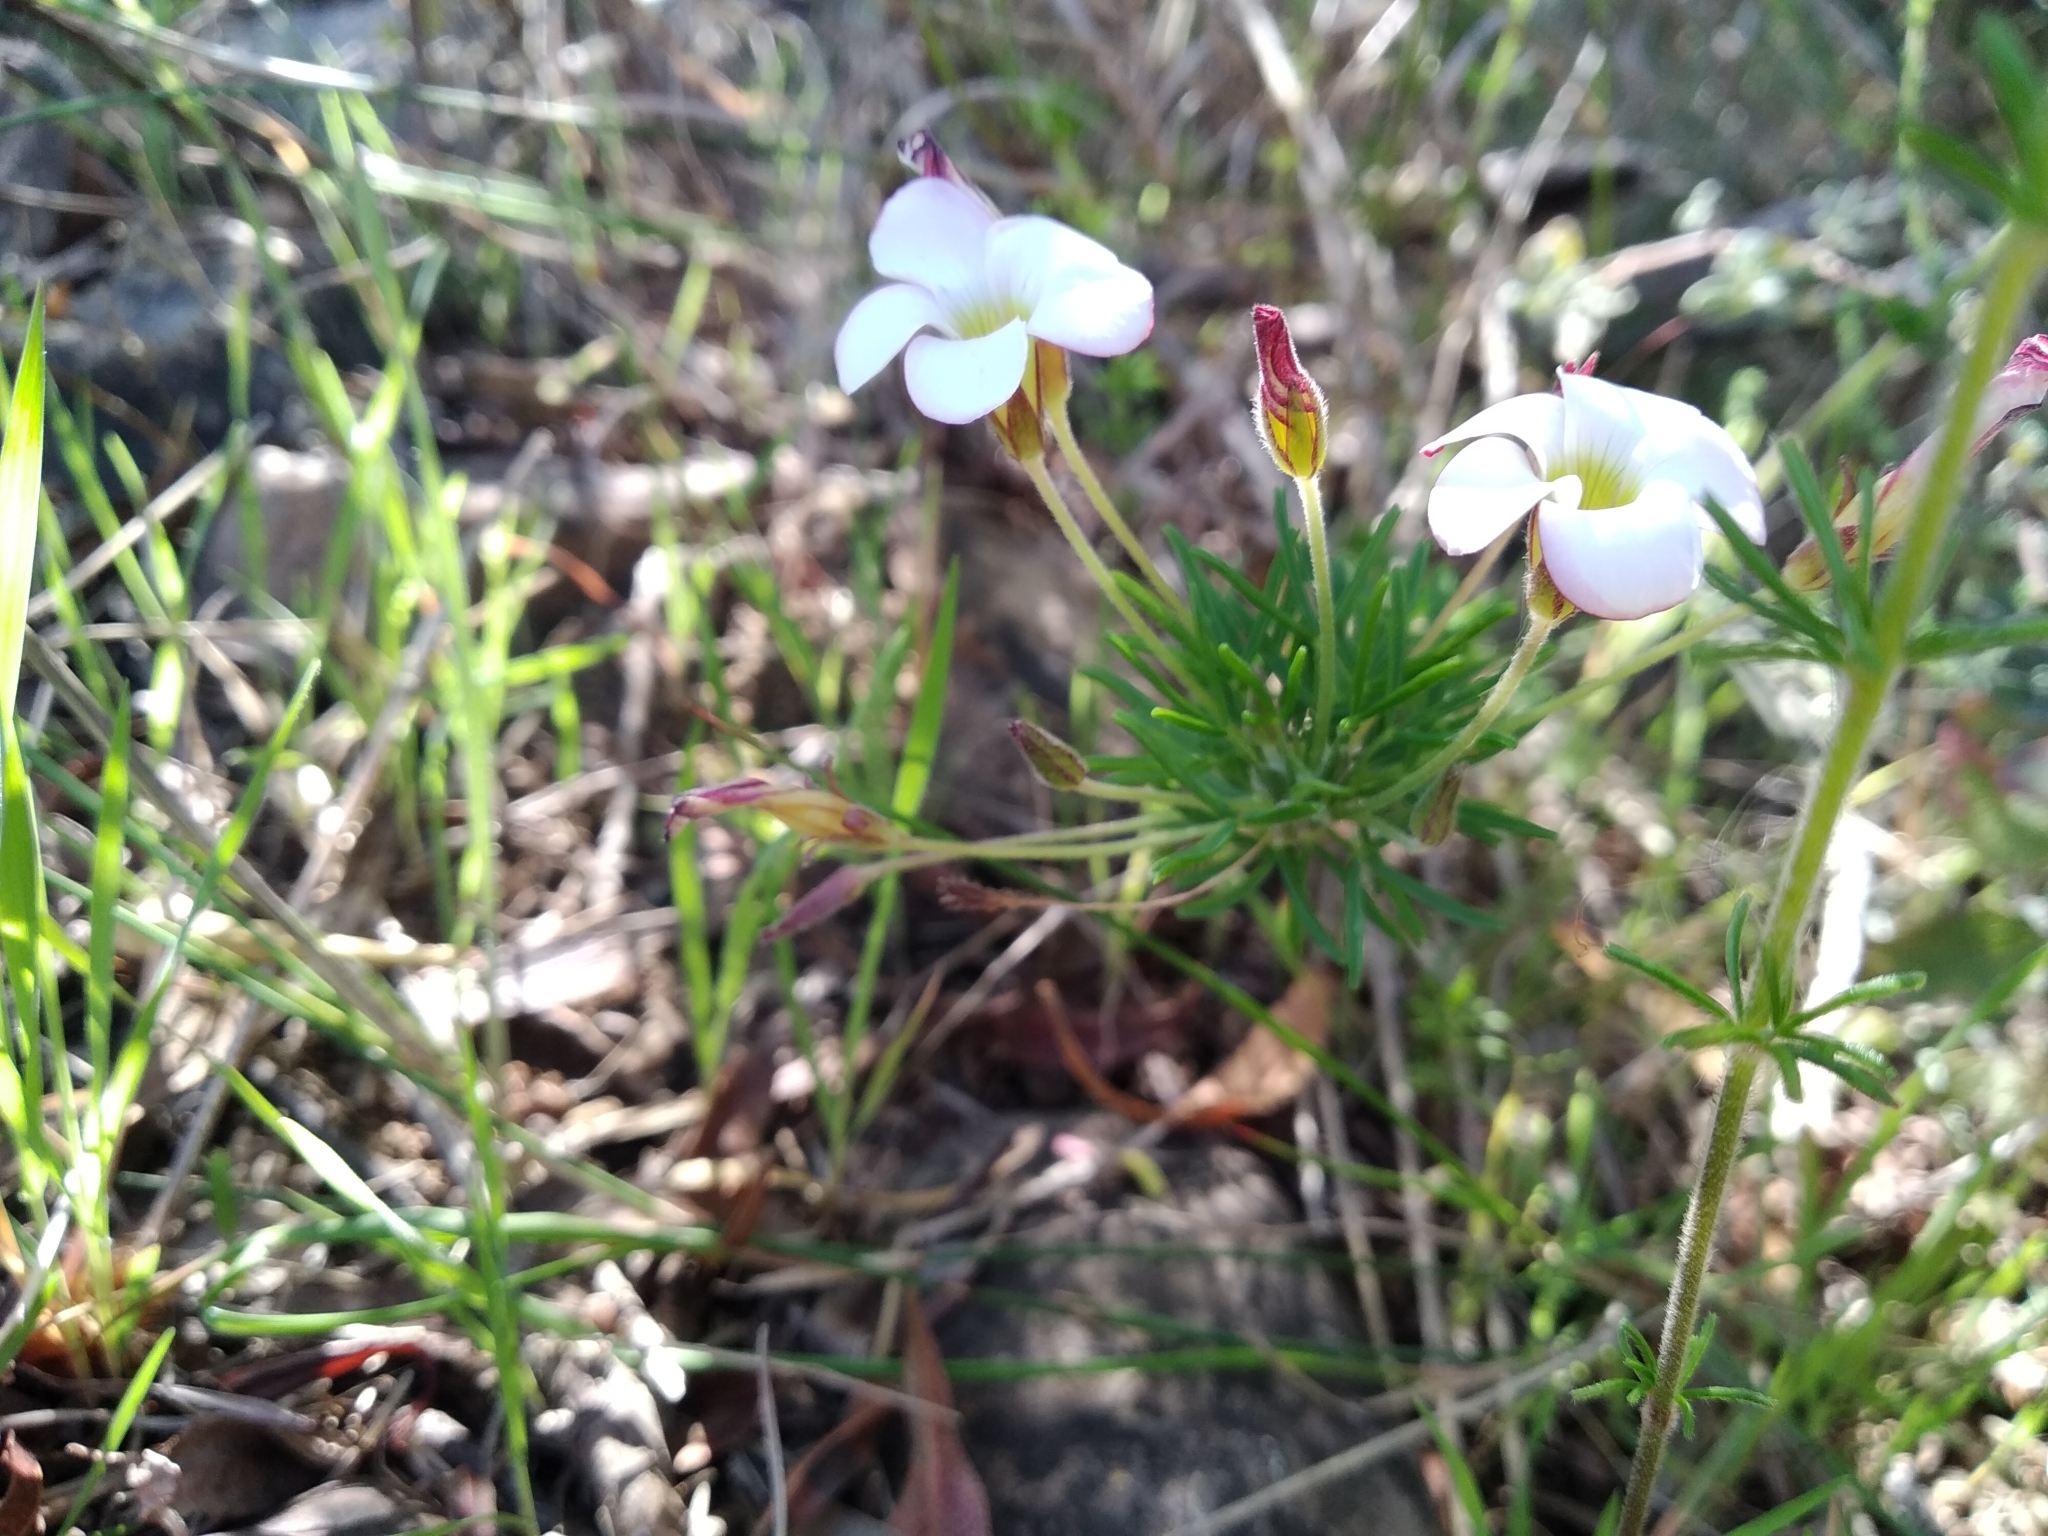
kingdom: Plantae
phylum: Tracheophyta
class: Magnoliopsida
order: Oxalidales
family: Oxalidaceae
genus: Oxalis
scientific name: Oxalis tenuifolia
